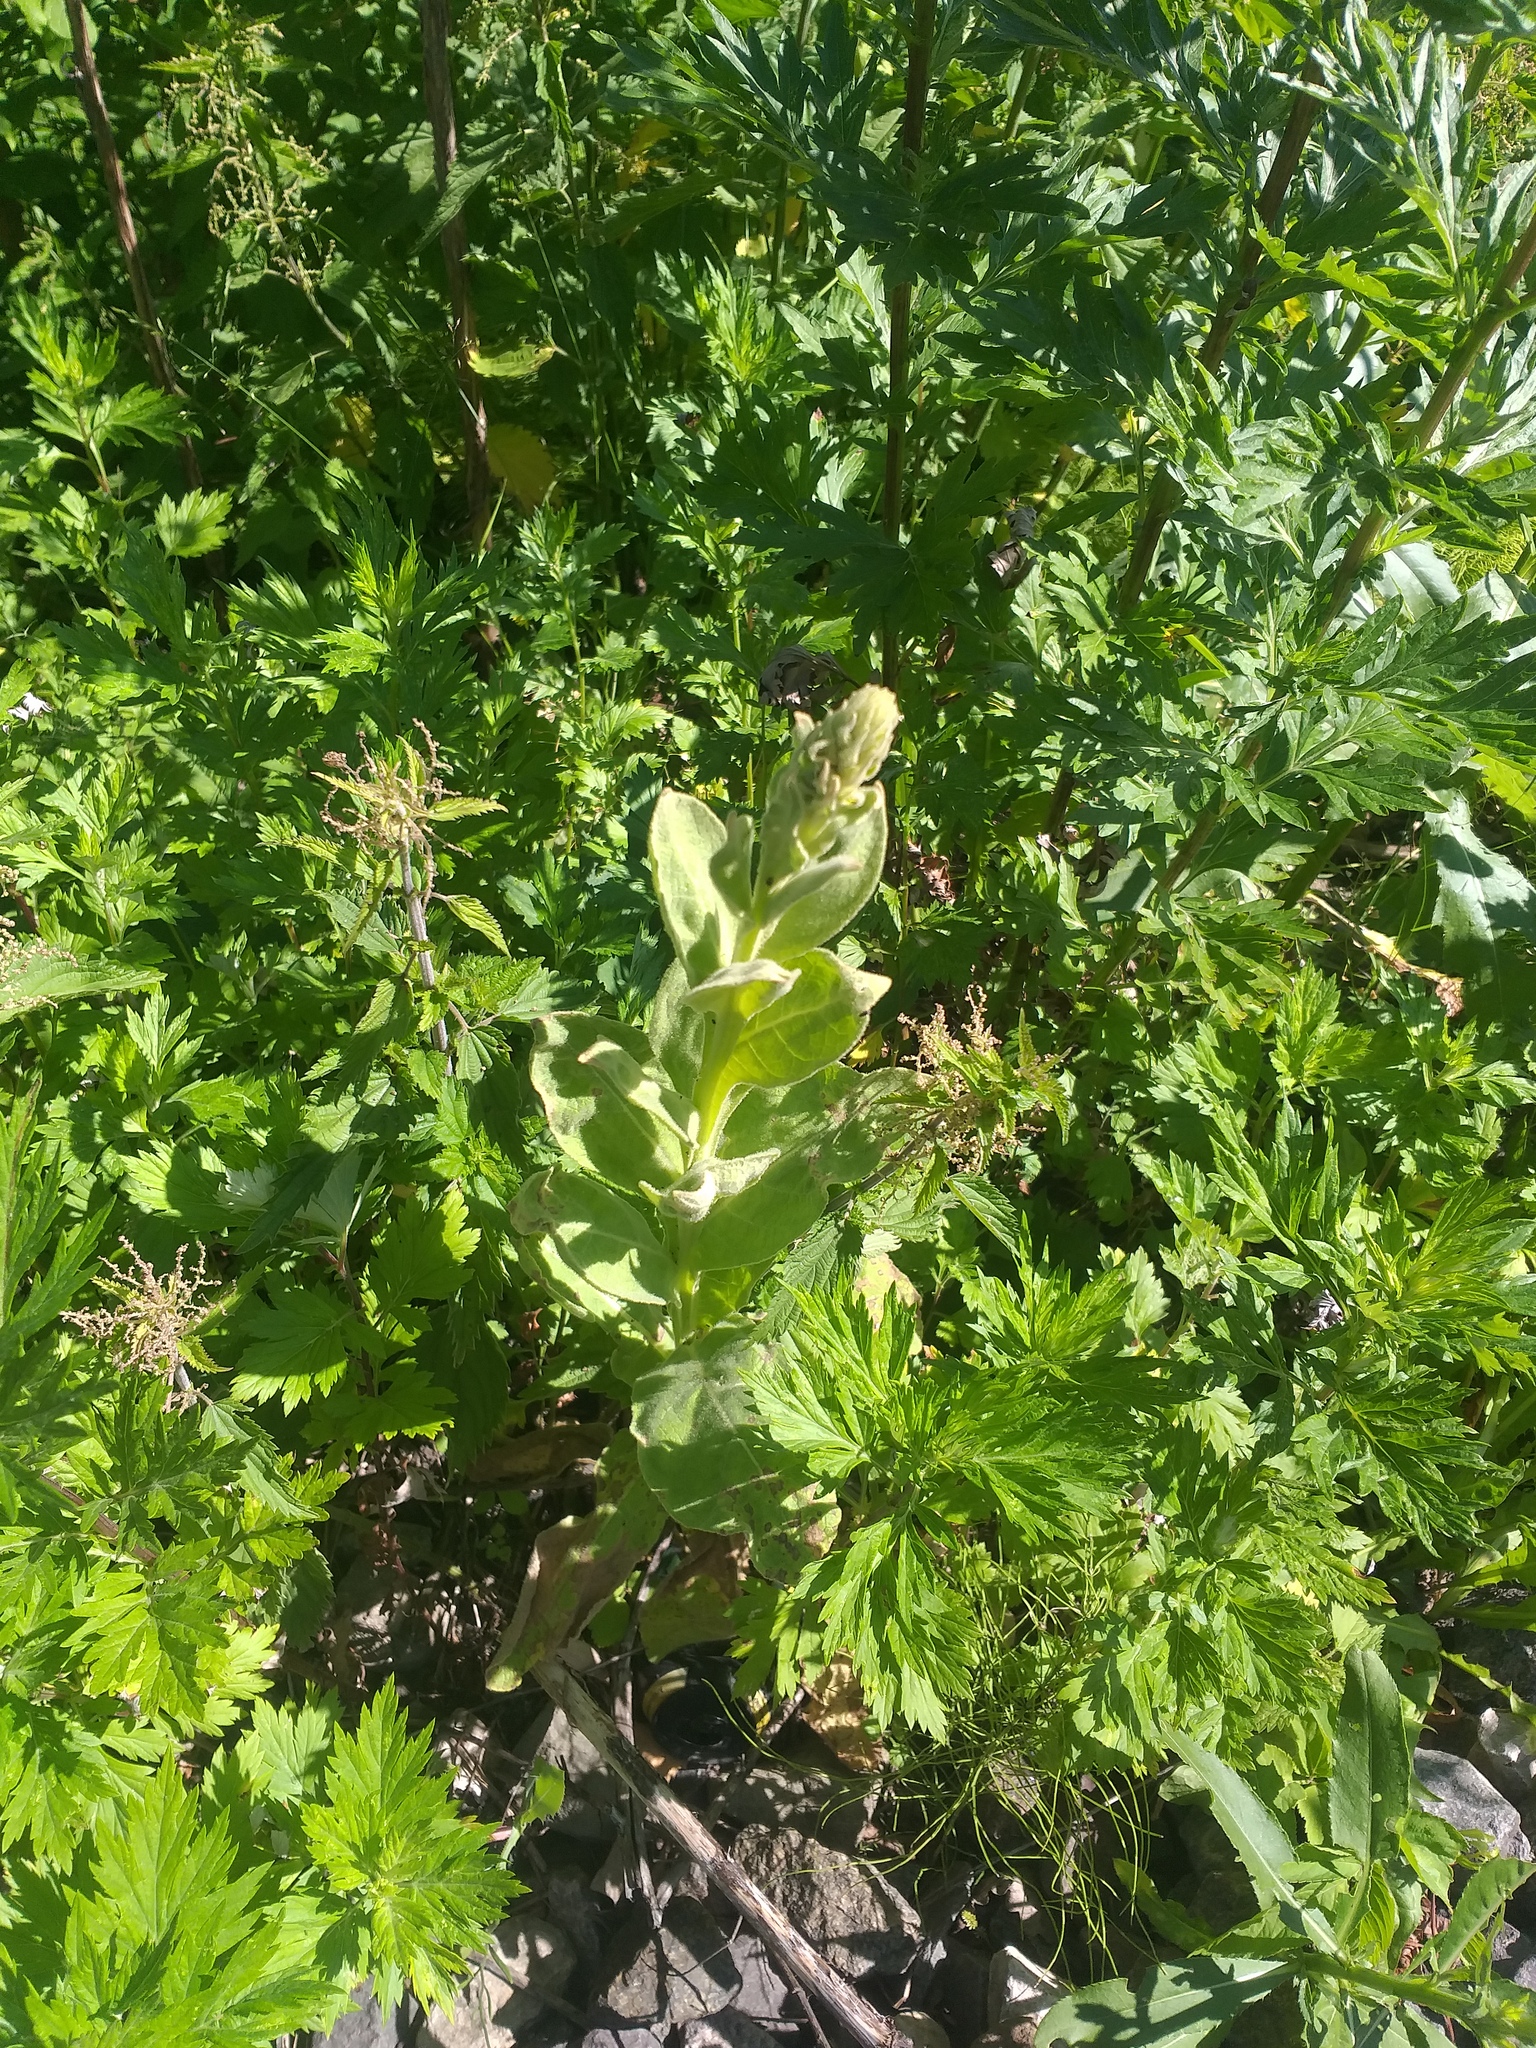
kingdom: Plantae
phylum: Tracheophyta
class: Magnoliopsida
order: Lamiales
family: Scrophulariaceae
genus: Verbascum
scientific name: Verbascum thapsus
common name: Common mullein
